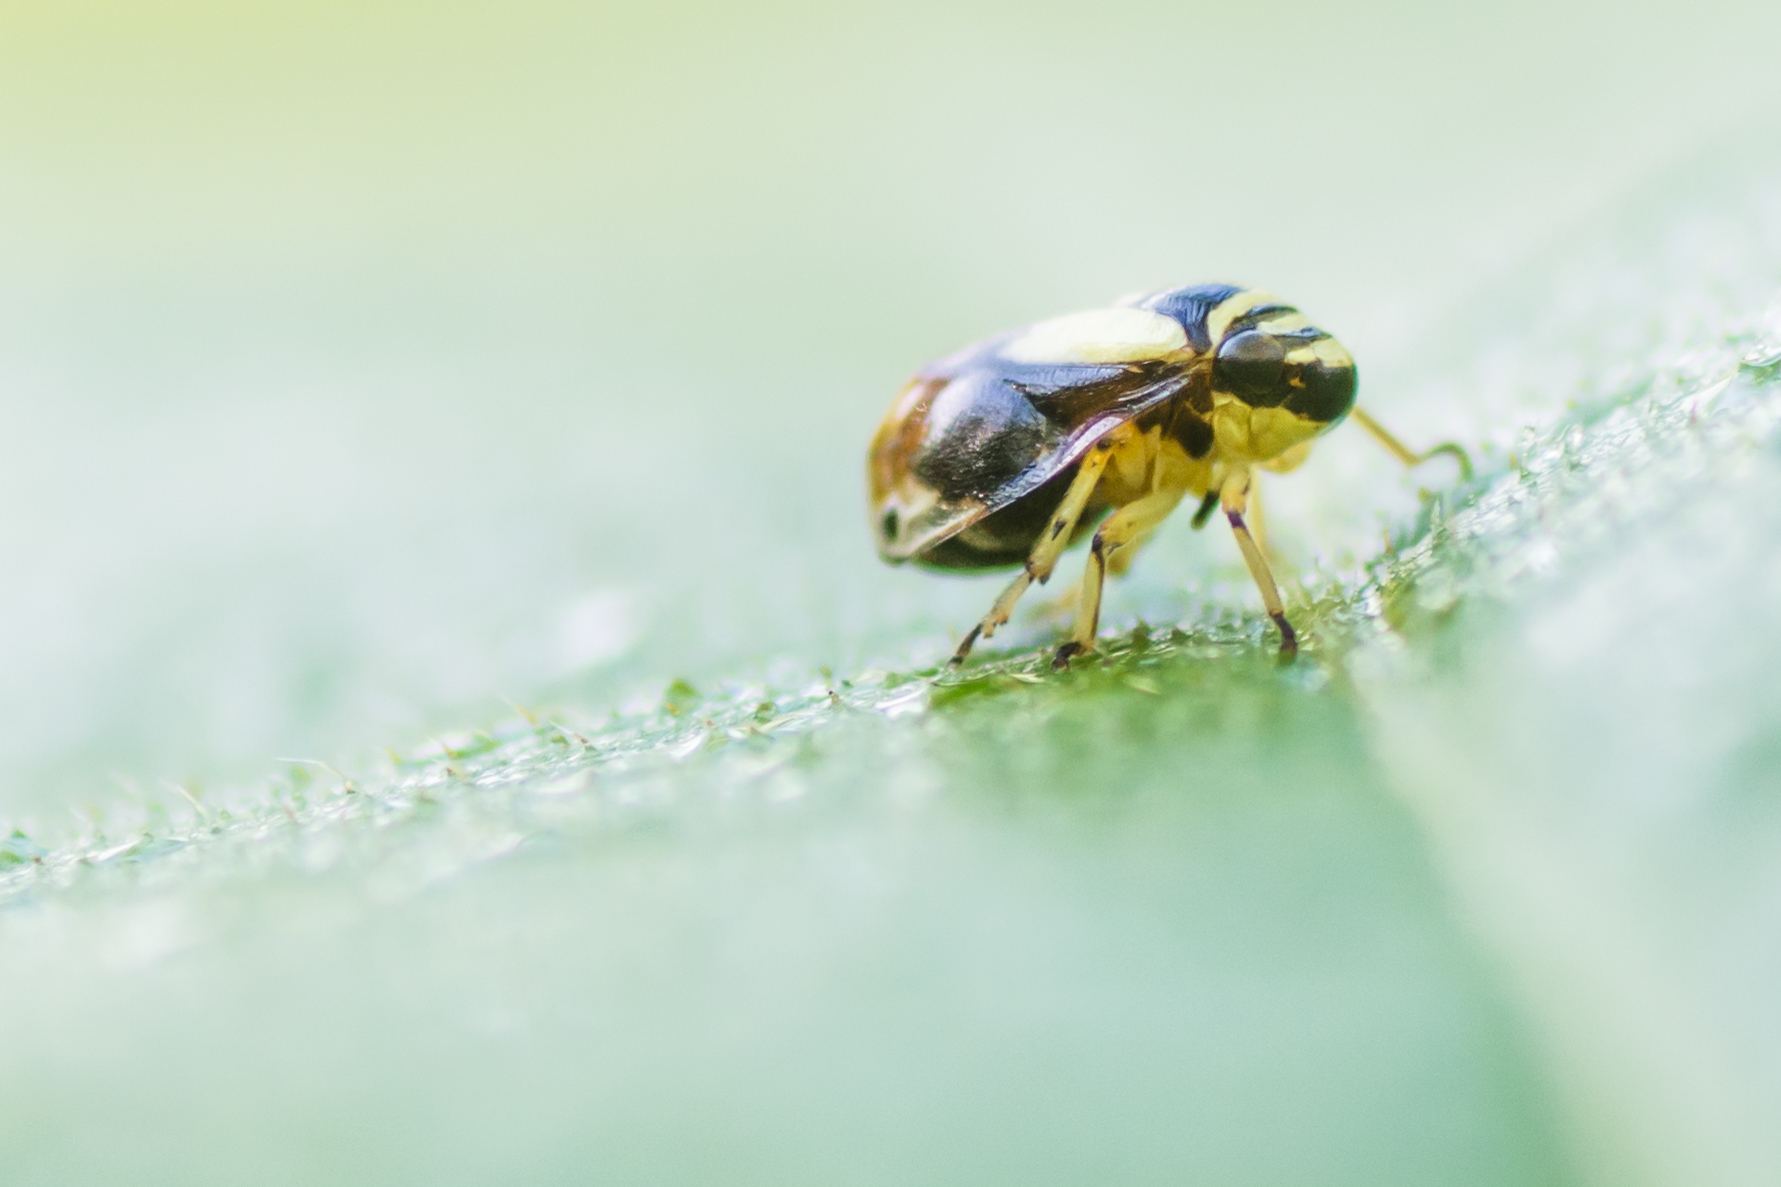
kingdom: Animalia
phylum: Arthropoda
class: Insecta
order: Hemiptera
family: Clastopteridae
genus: Clastoptera
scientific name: Clastoptera proteus
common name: Dogwood spittlebug
